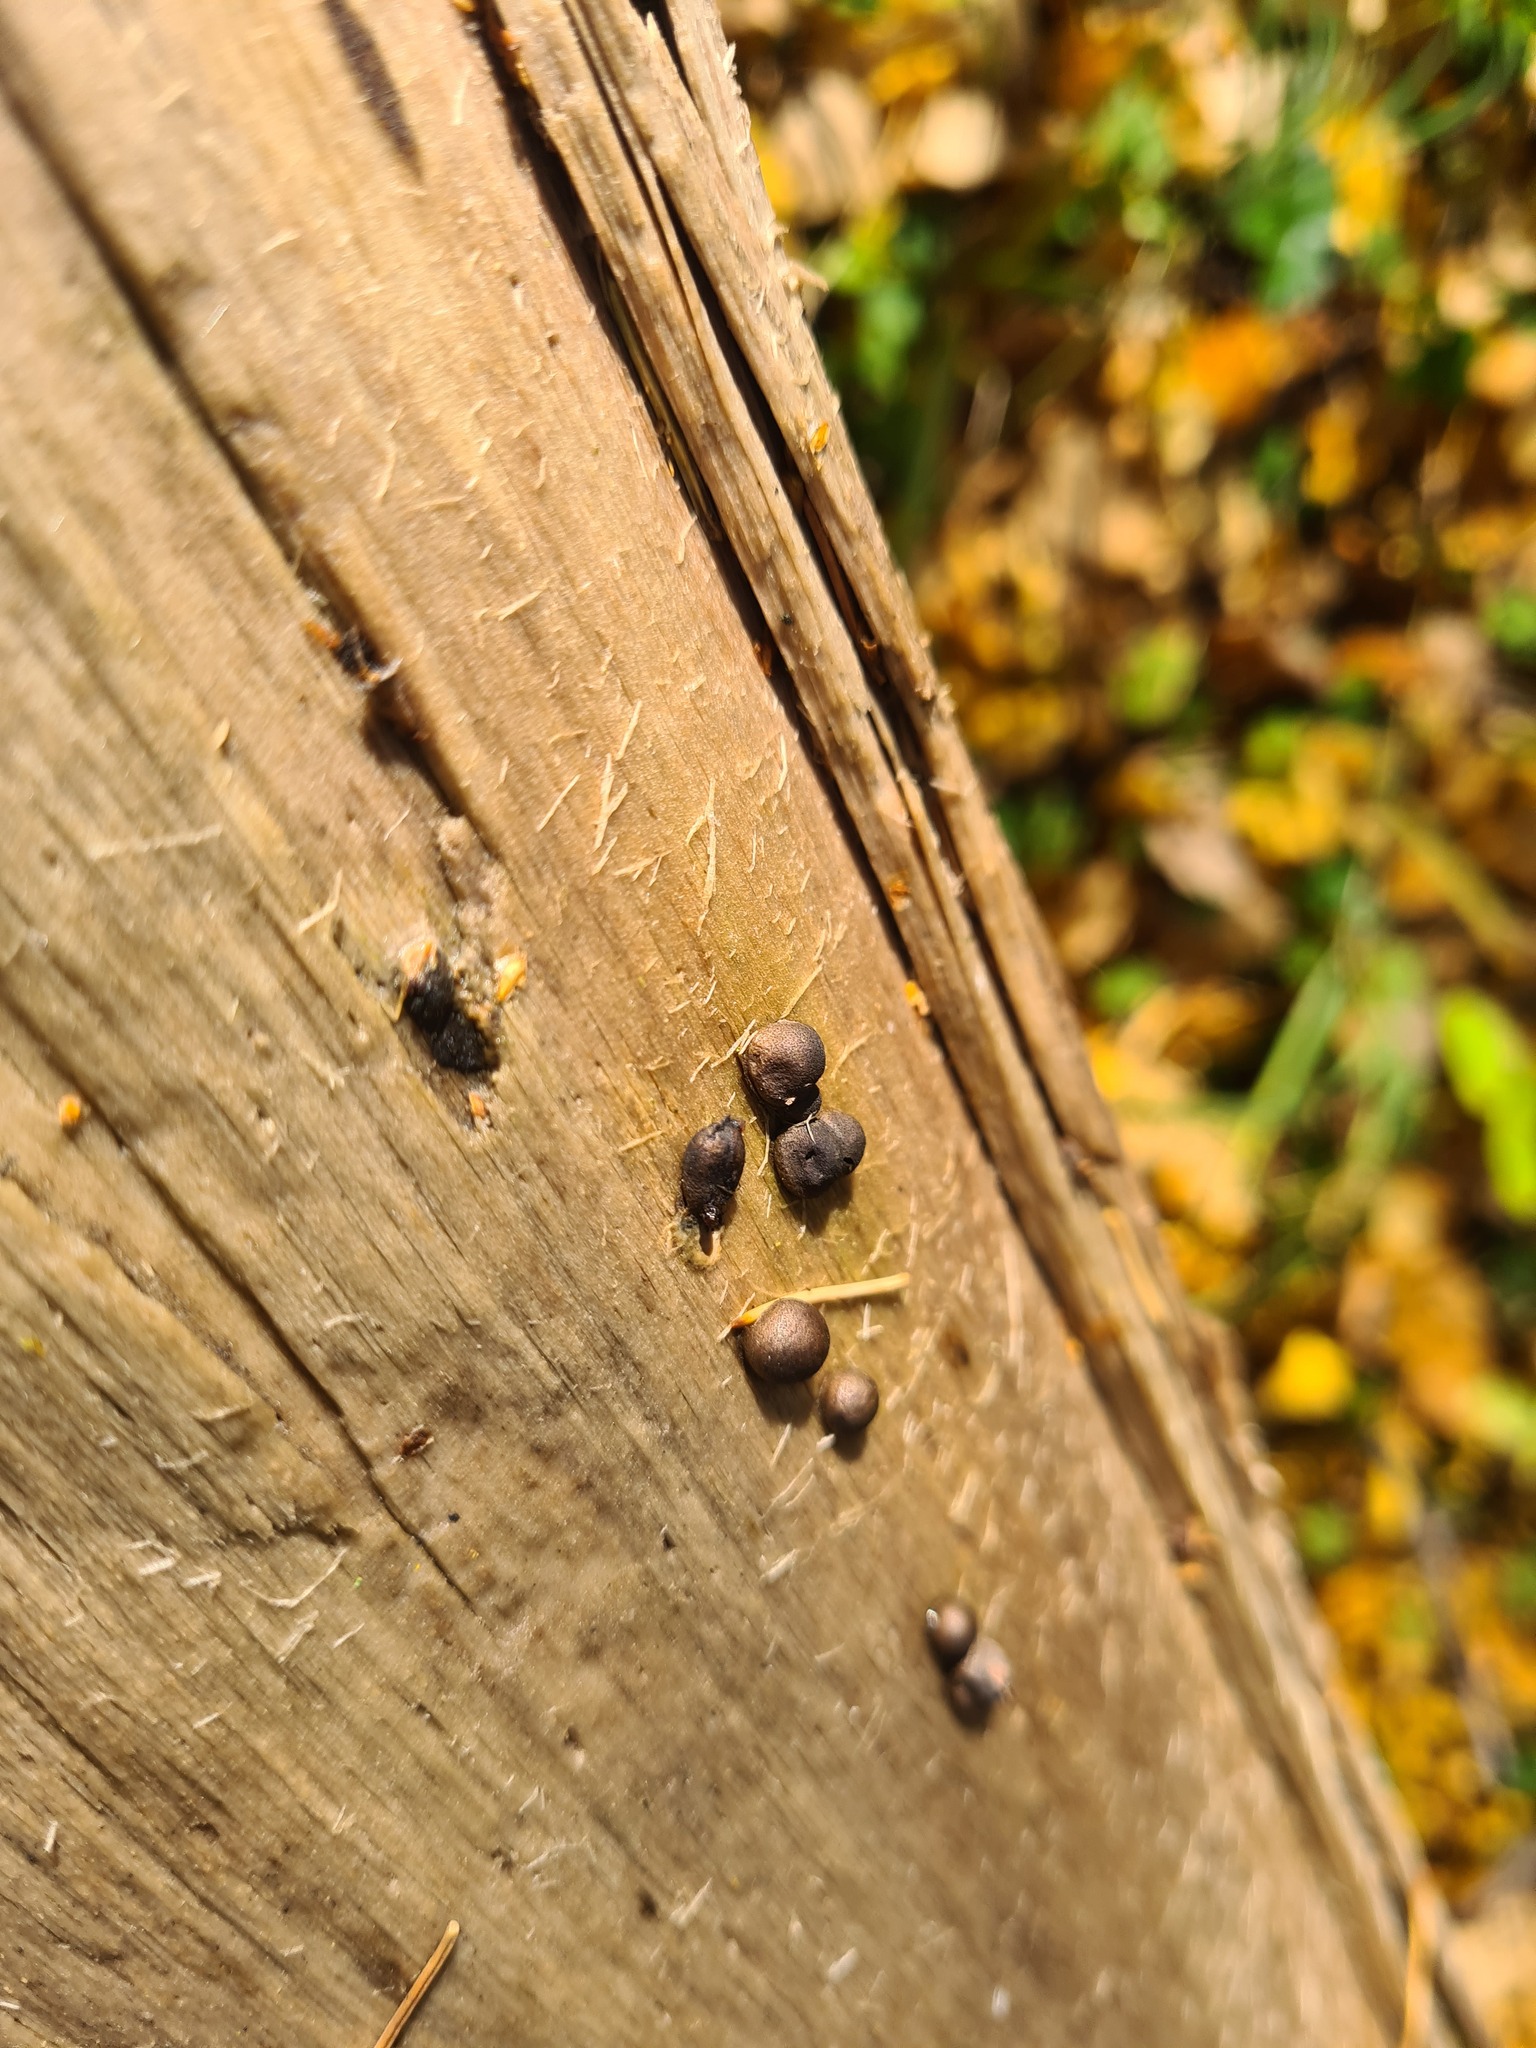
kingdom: Protozoa
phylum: Mycetozoa
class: Myxomycetes
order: Cribrariales
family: Tubiferaceae
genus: Lycogala
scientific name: Lycogala epidendrum
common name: Wolf's milk
